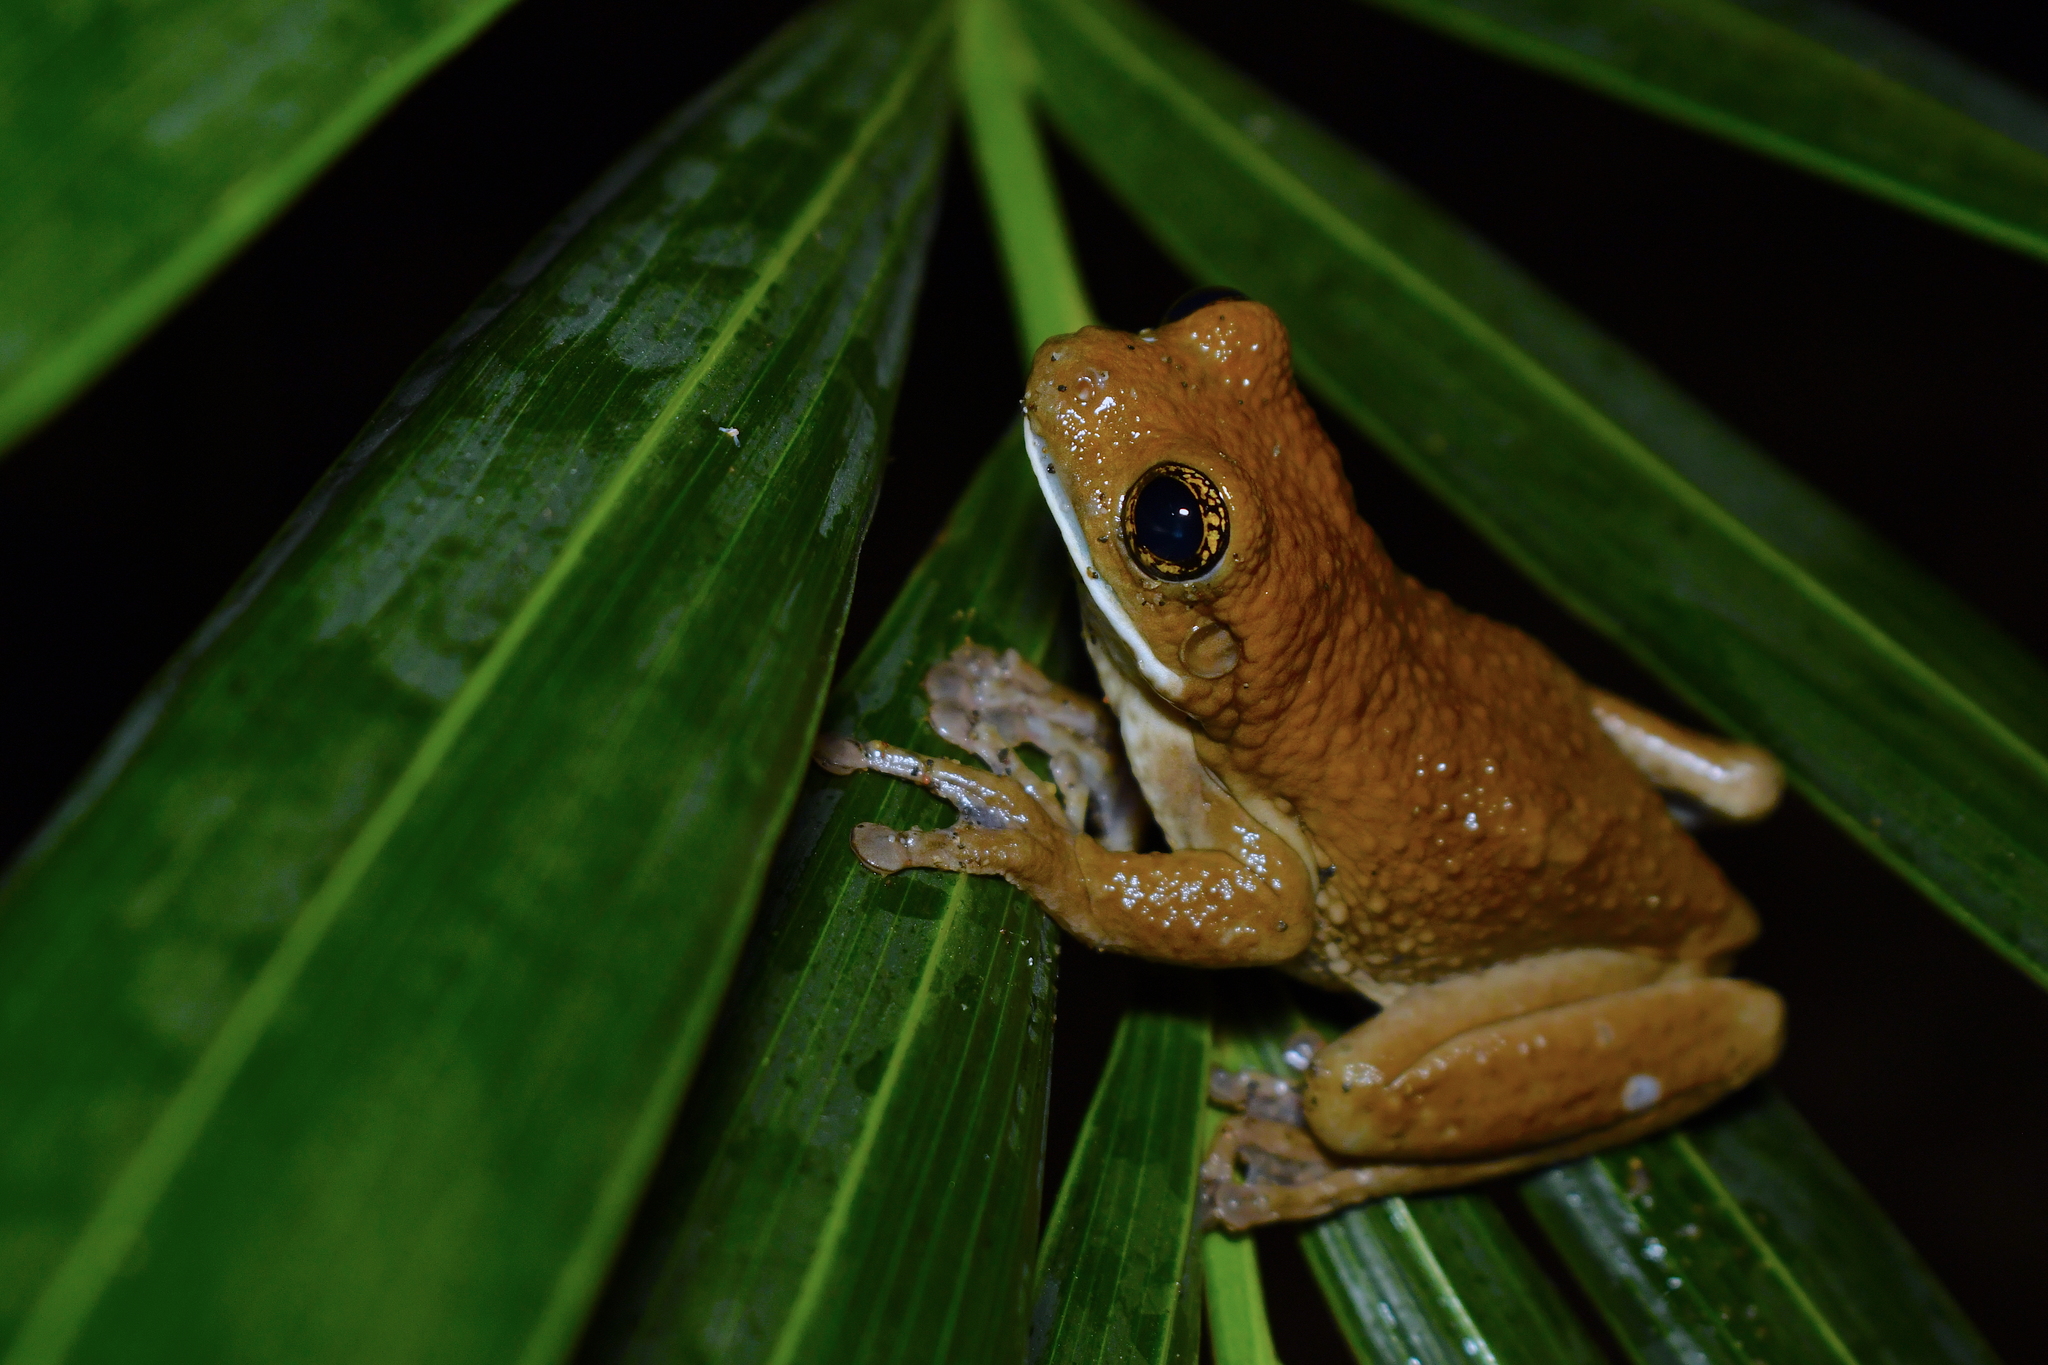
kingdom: Animalia
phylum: Chordata
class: Amphibia
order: Anura
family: Hylidae
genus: Trachycephalus
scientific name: Trachycephalus vermiculatus
